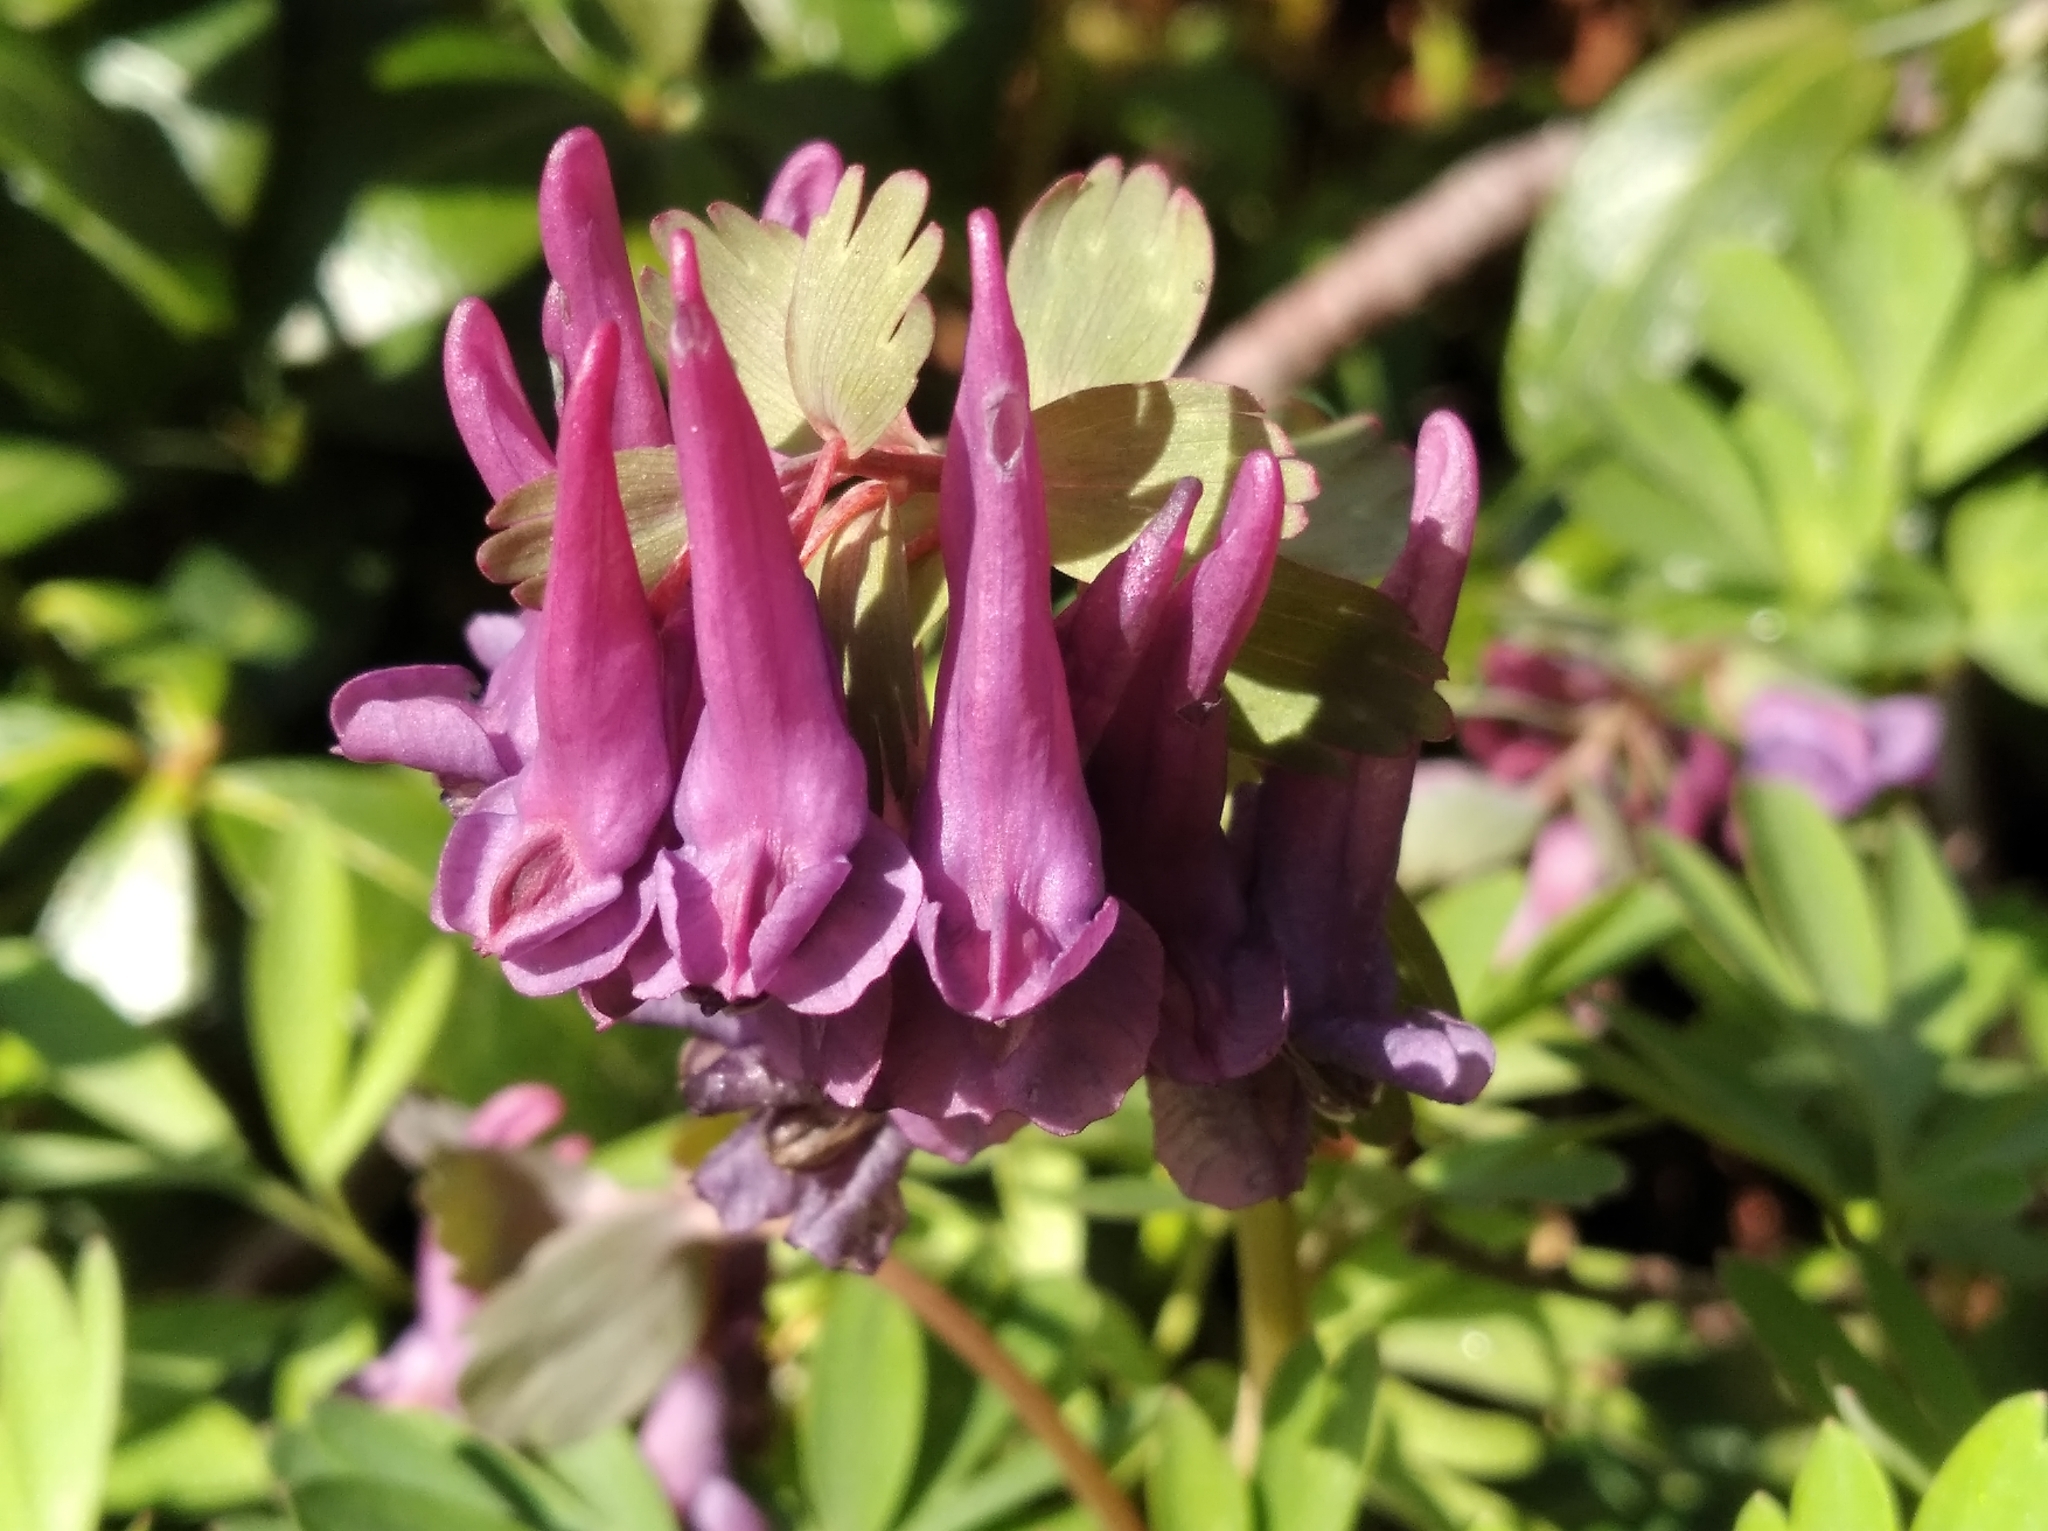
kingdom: Plantae
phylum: Tracheophyta
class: Magnoliopsida
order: Ranunculales
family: Papaveraceae
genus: Corydalis
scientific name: Corydalis solida
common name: Bird-in-a-bush
